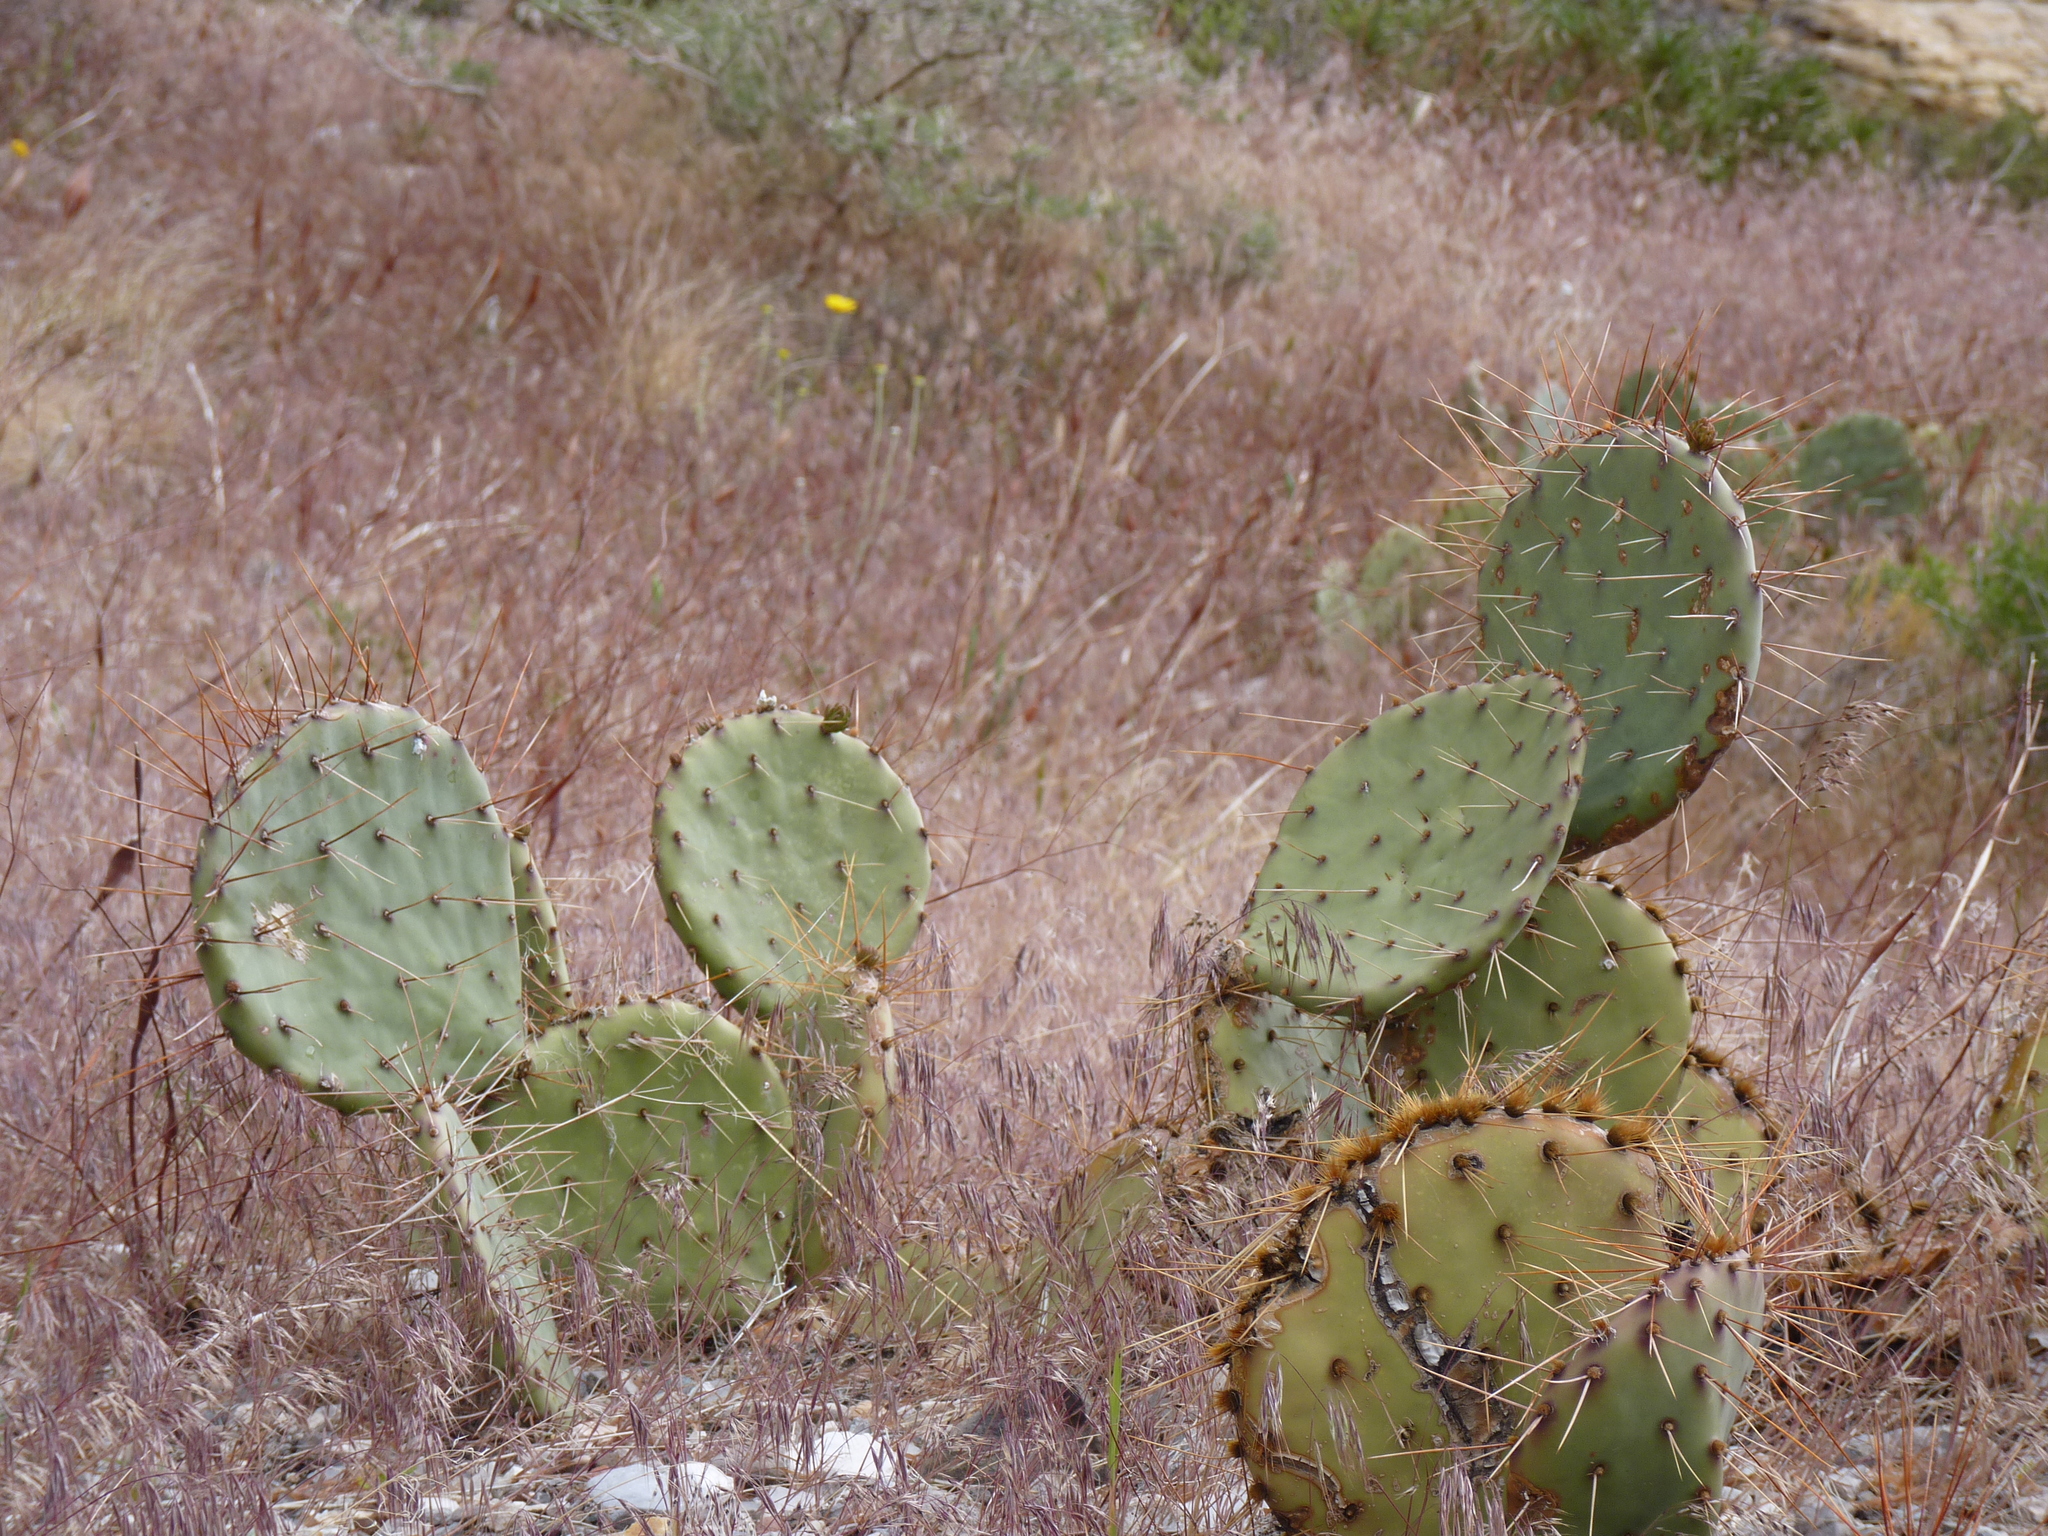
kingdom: Plantae
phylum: Tracheophyta
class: Magnoliopsida
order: Caryophyllales
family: Cactaceae
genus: Opuntia
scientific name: Opuntia phaeacantha
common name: New mexico prickly-pear
